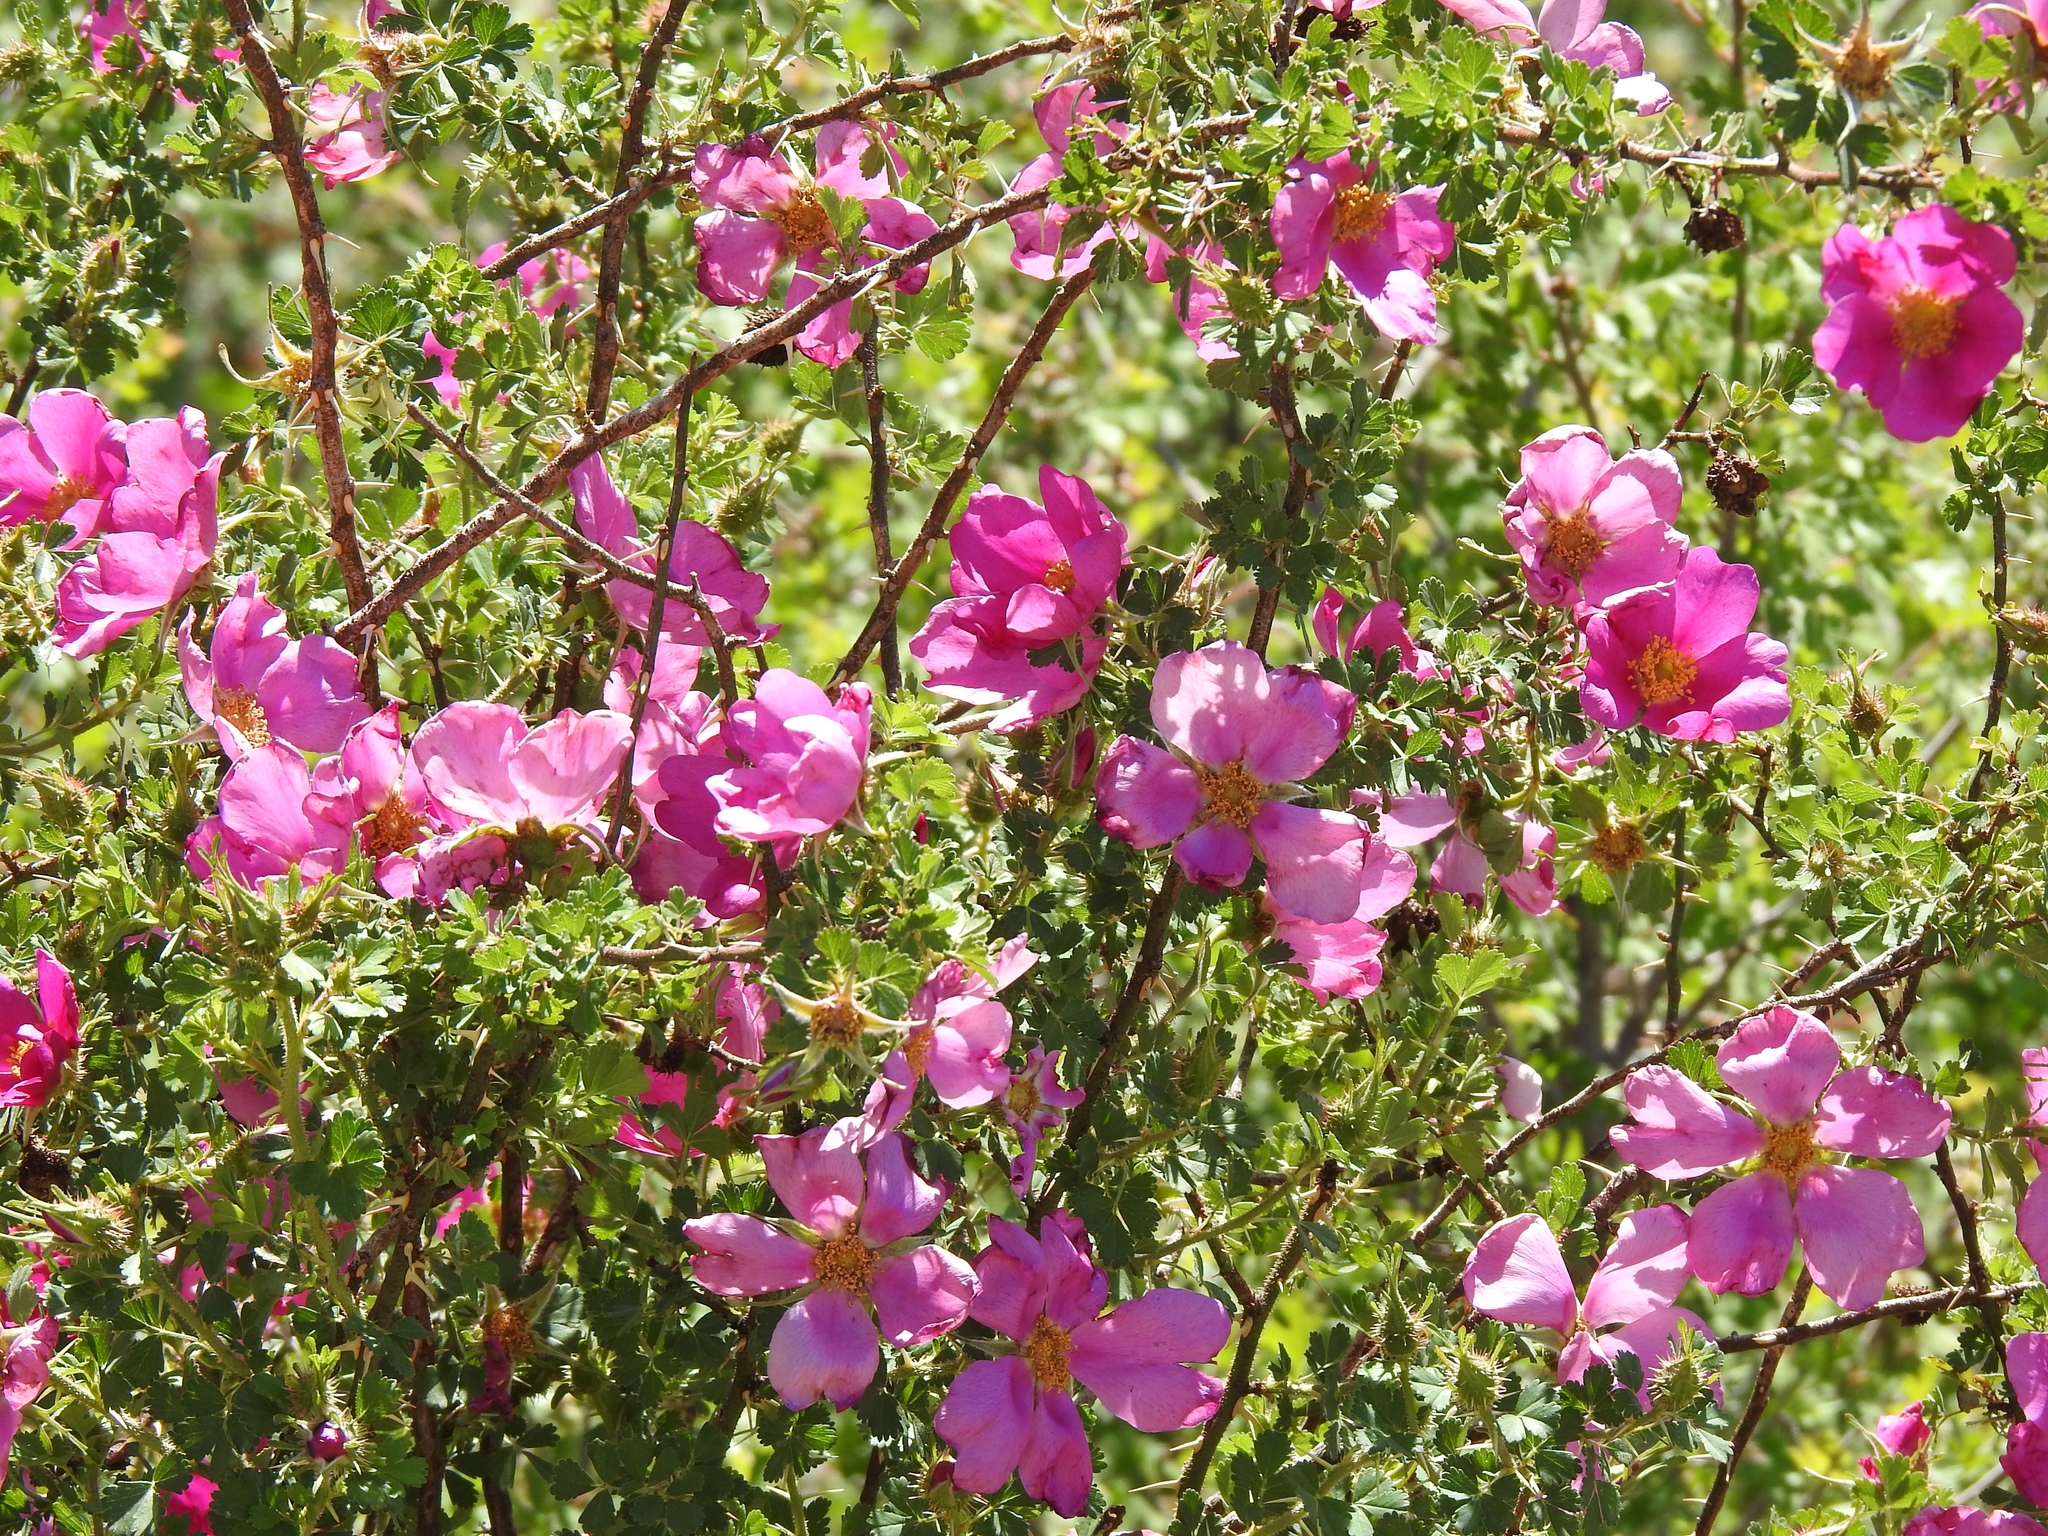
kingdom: Plantae
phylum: Tracheophyta
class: Magnoliopsida
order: Rosales
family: Rosaceae
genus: Rosa
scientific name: Rosa stellata
